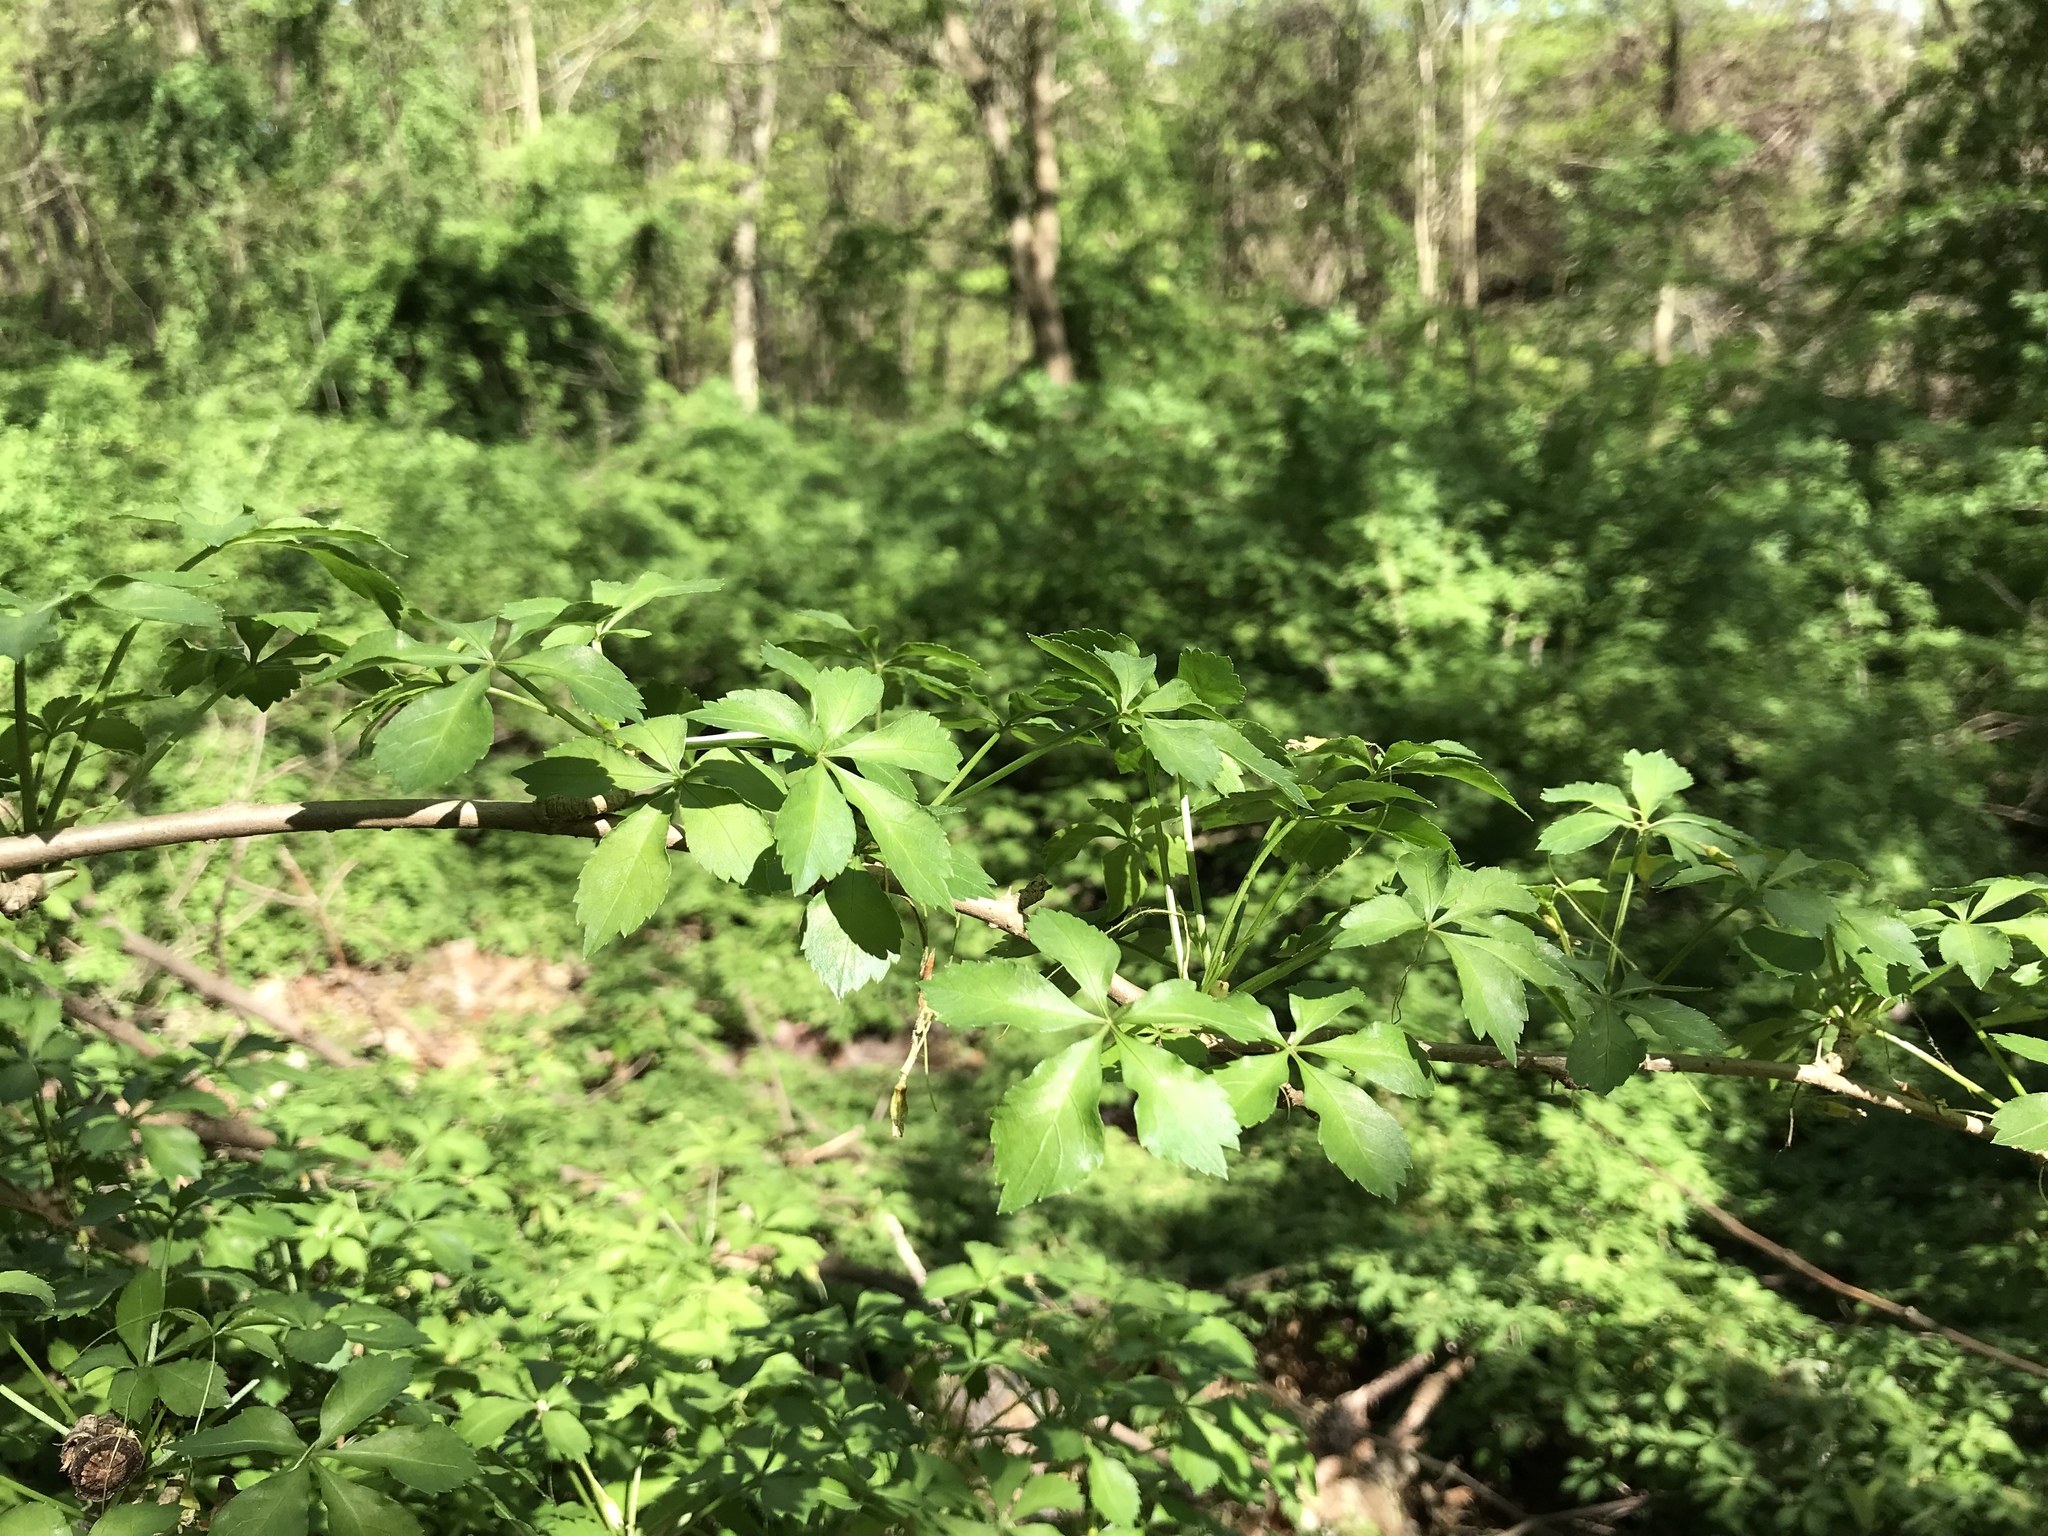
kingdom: Plantae
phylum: Tracheophyta
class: Magnoliopsida
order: Apiales
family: Araliaceae
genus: Eleutherococcus
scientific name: Eleutherococcus sieboldianus
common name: Ginseng
